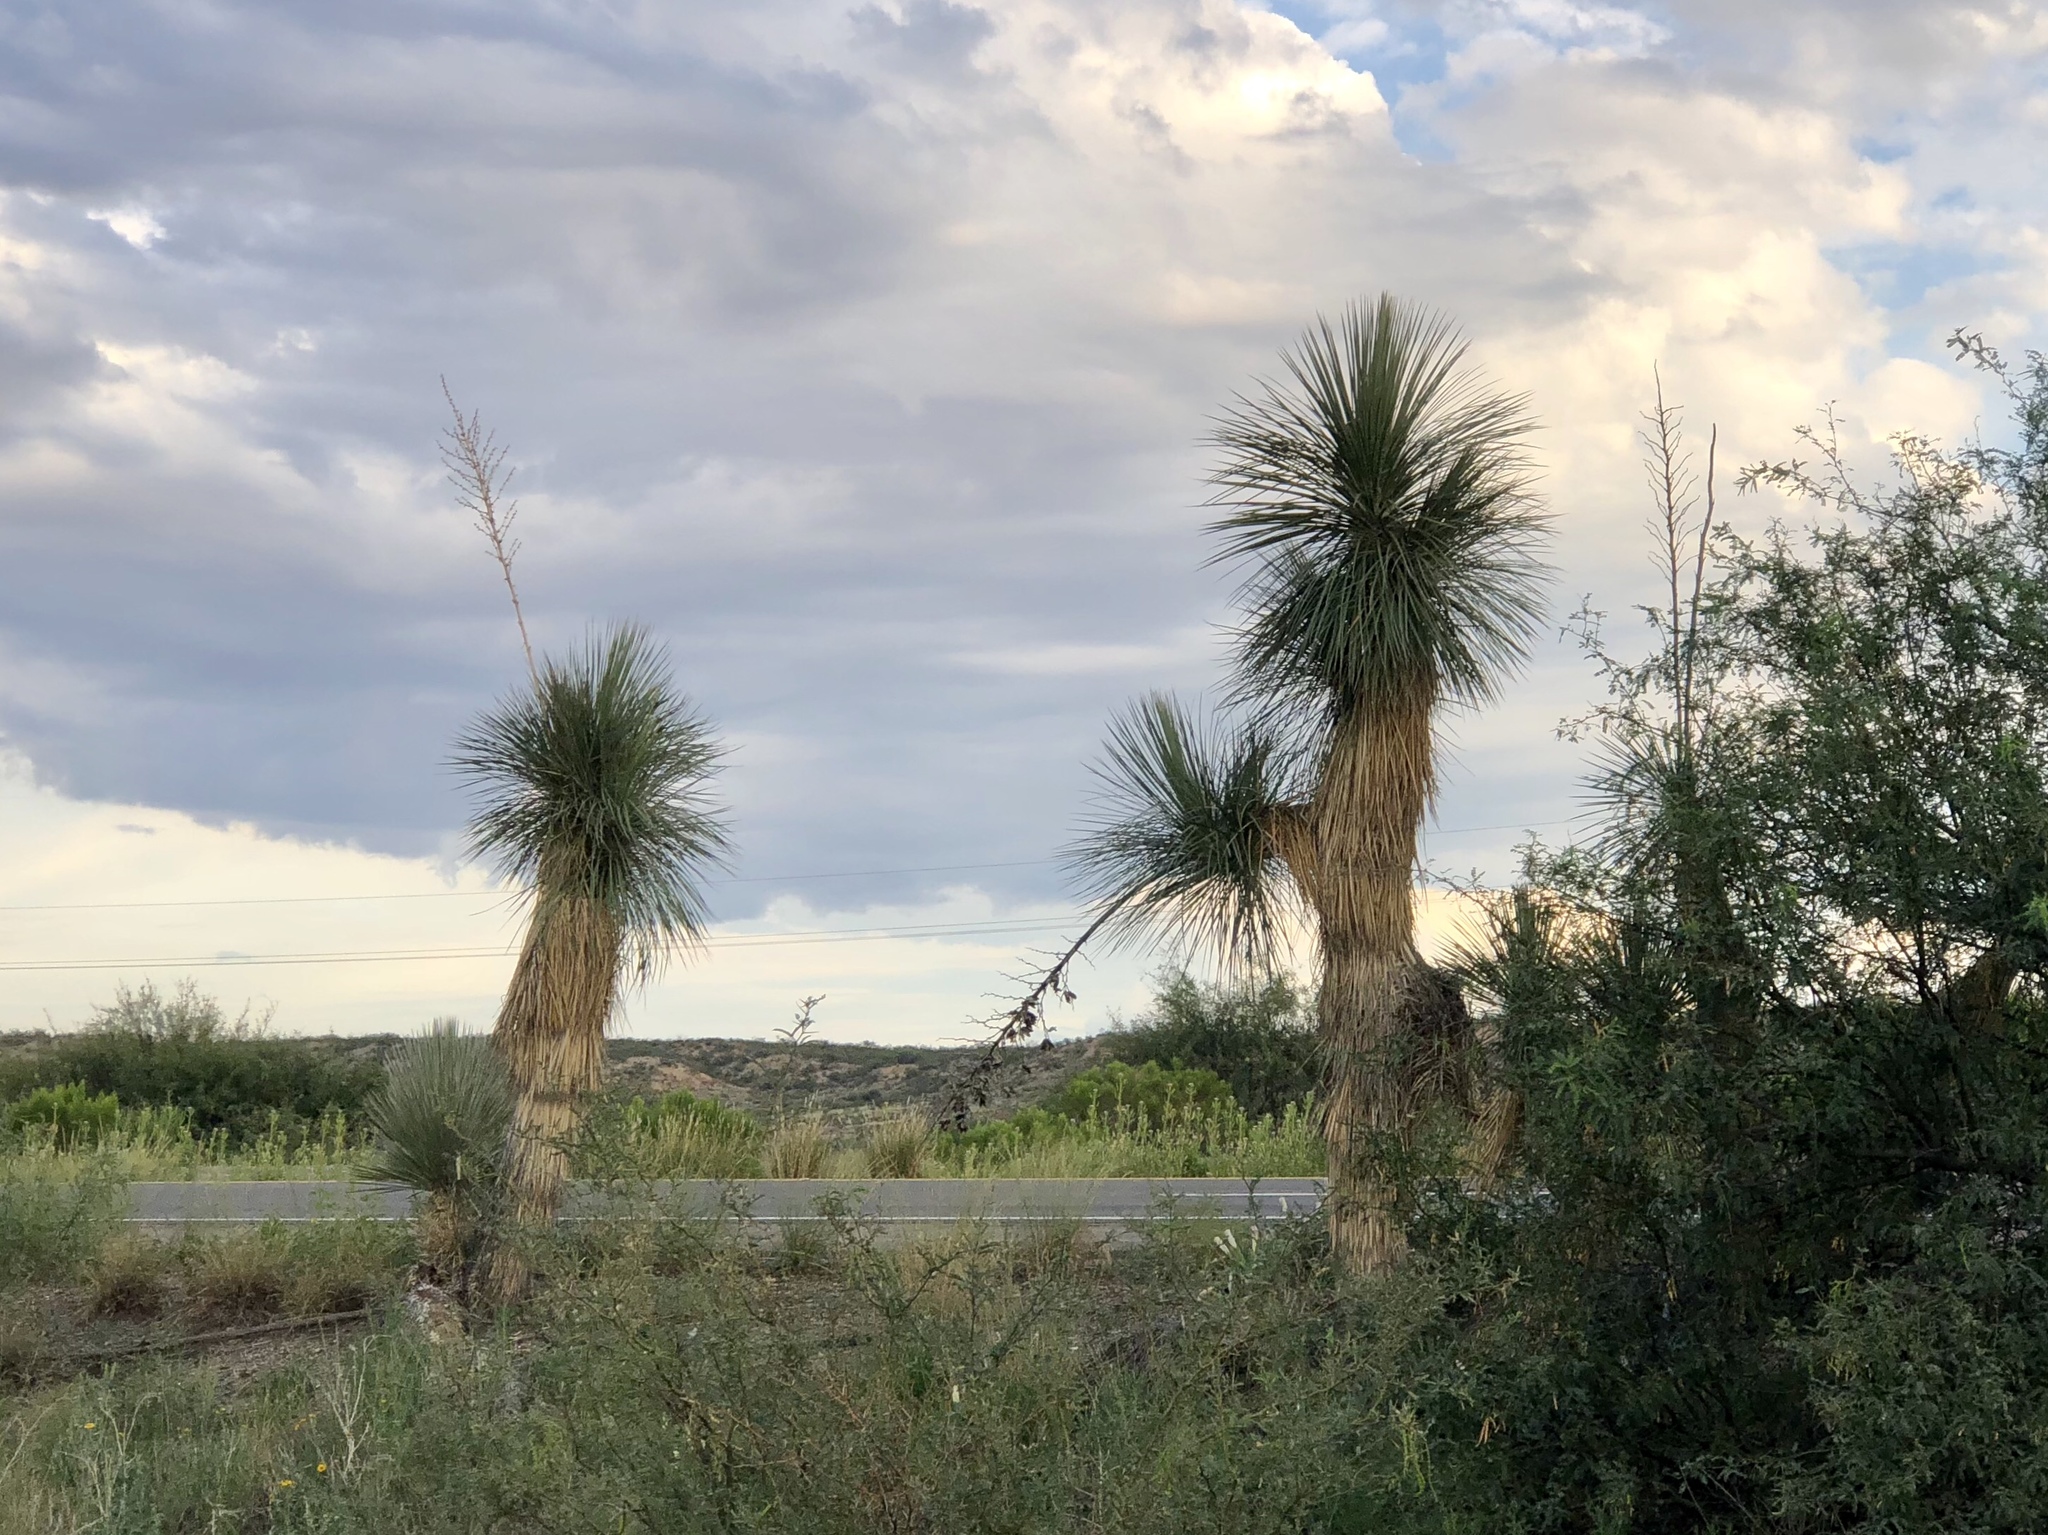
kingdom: Plantae
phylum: Tracheophyta
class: Liliopsida
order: Asparagales
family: Asparagaceae
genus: Yucca
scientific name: Yucca elata
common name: Palmella
